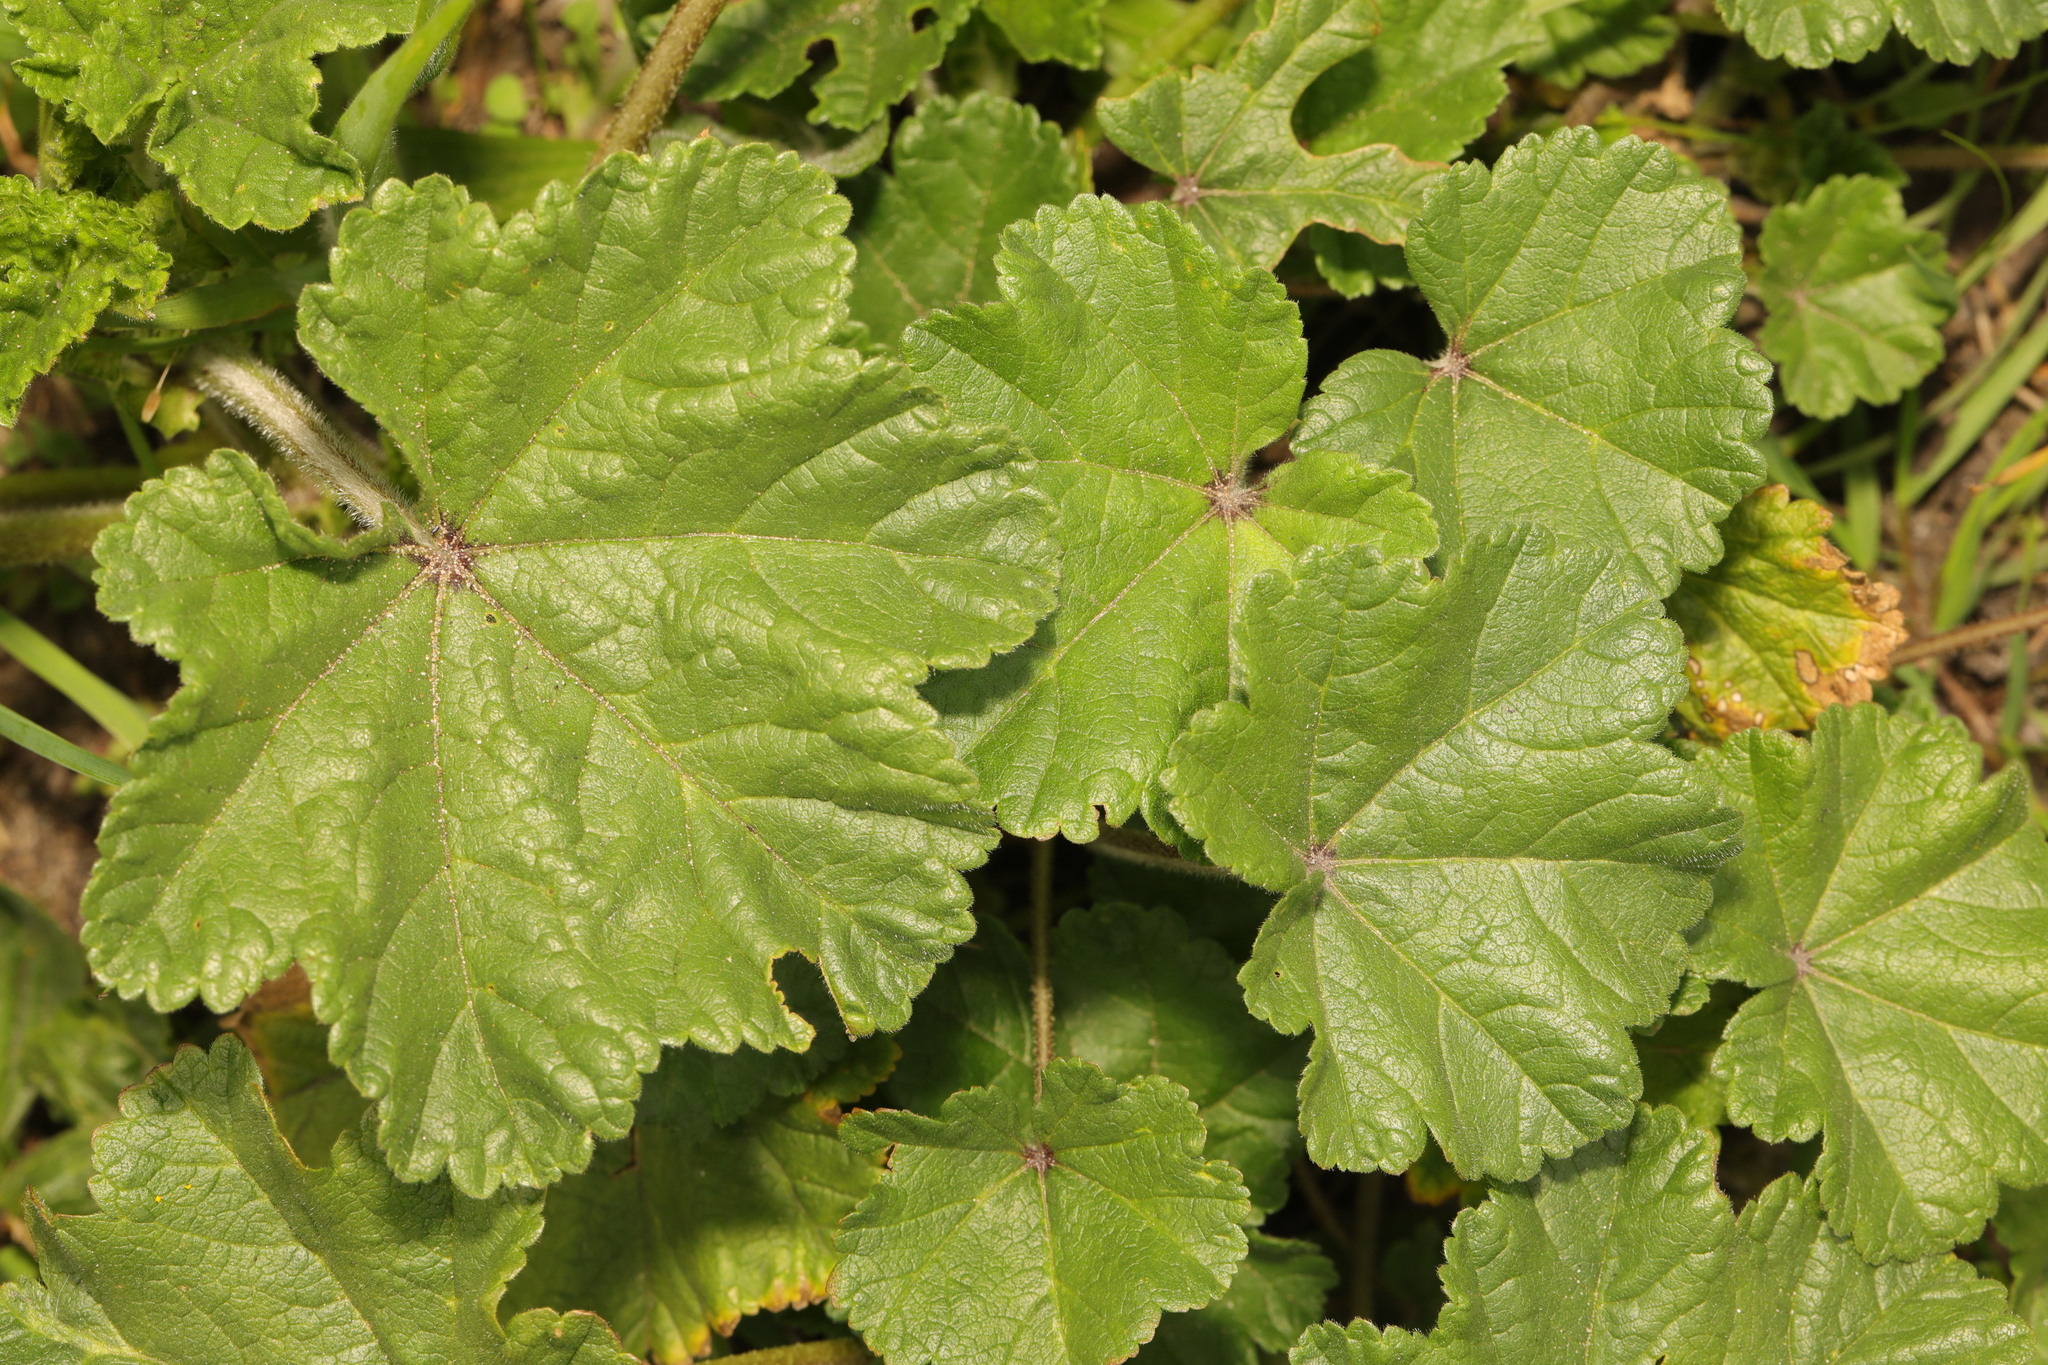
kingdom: Plantae
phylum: Tracheophyta
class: Magnoliopsida
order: Malvales
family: Malvaceae
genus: Malva
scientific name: Malva sylvestris
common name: Common mallow
